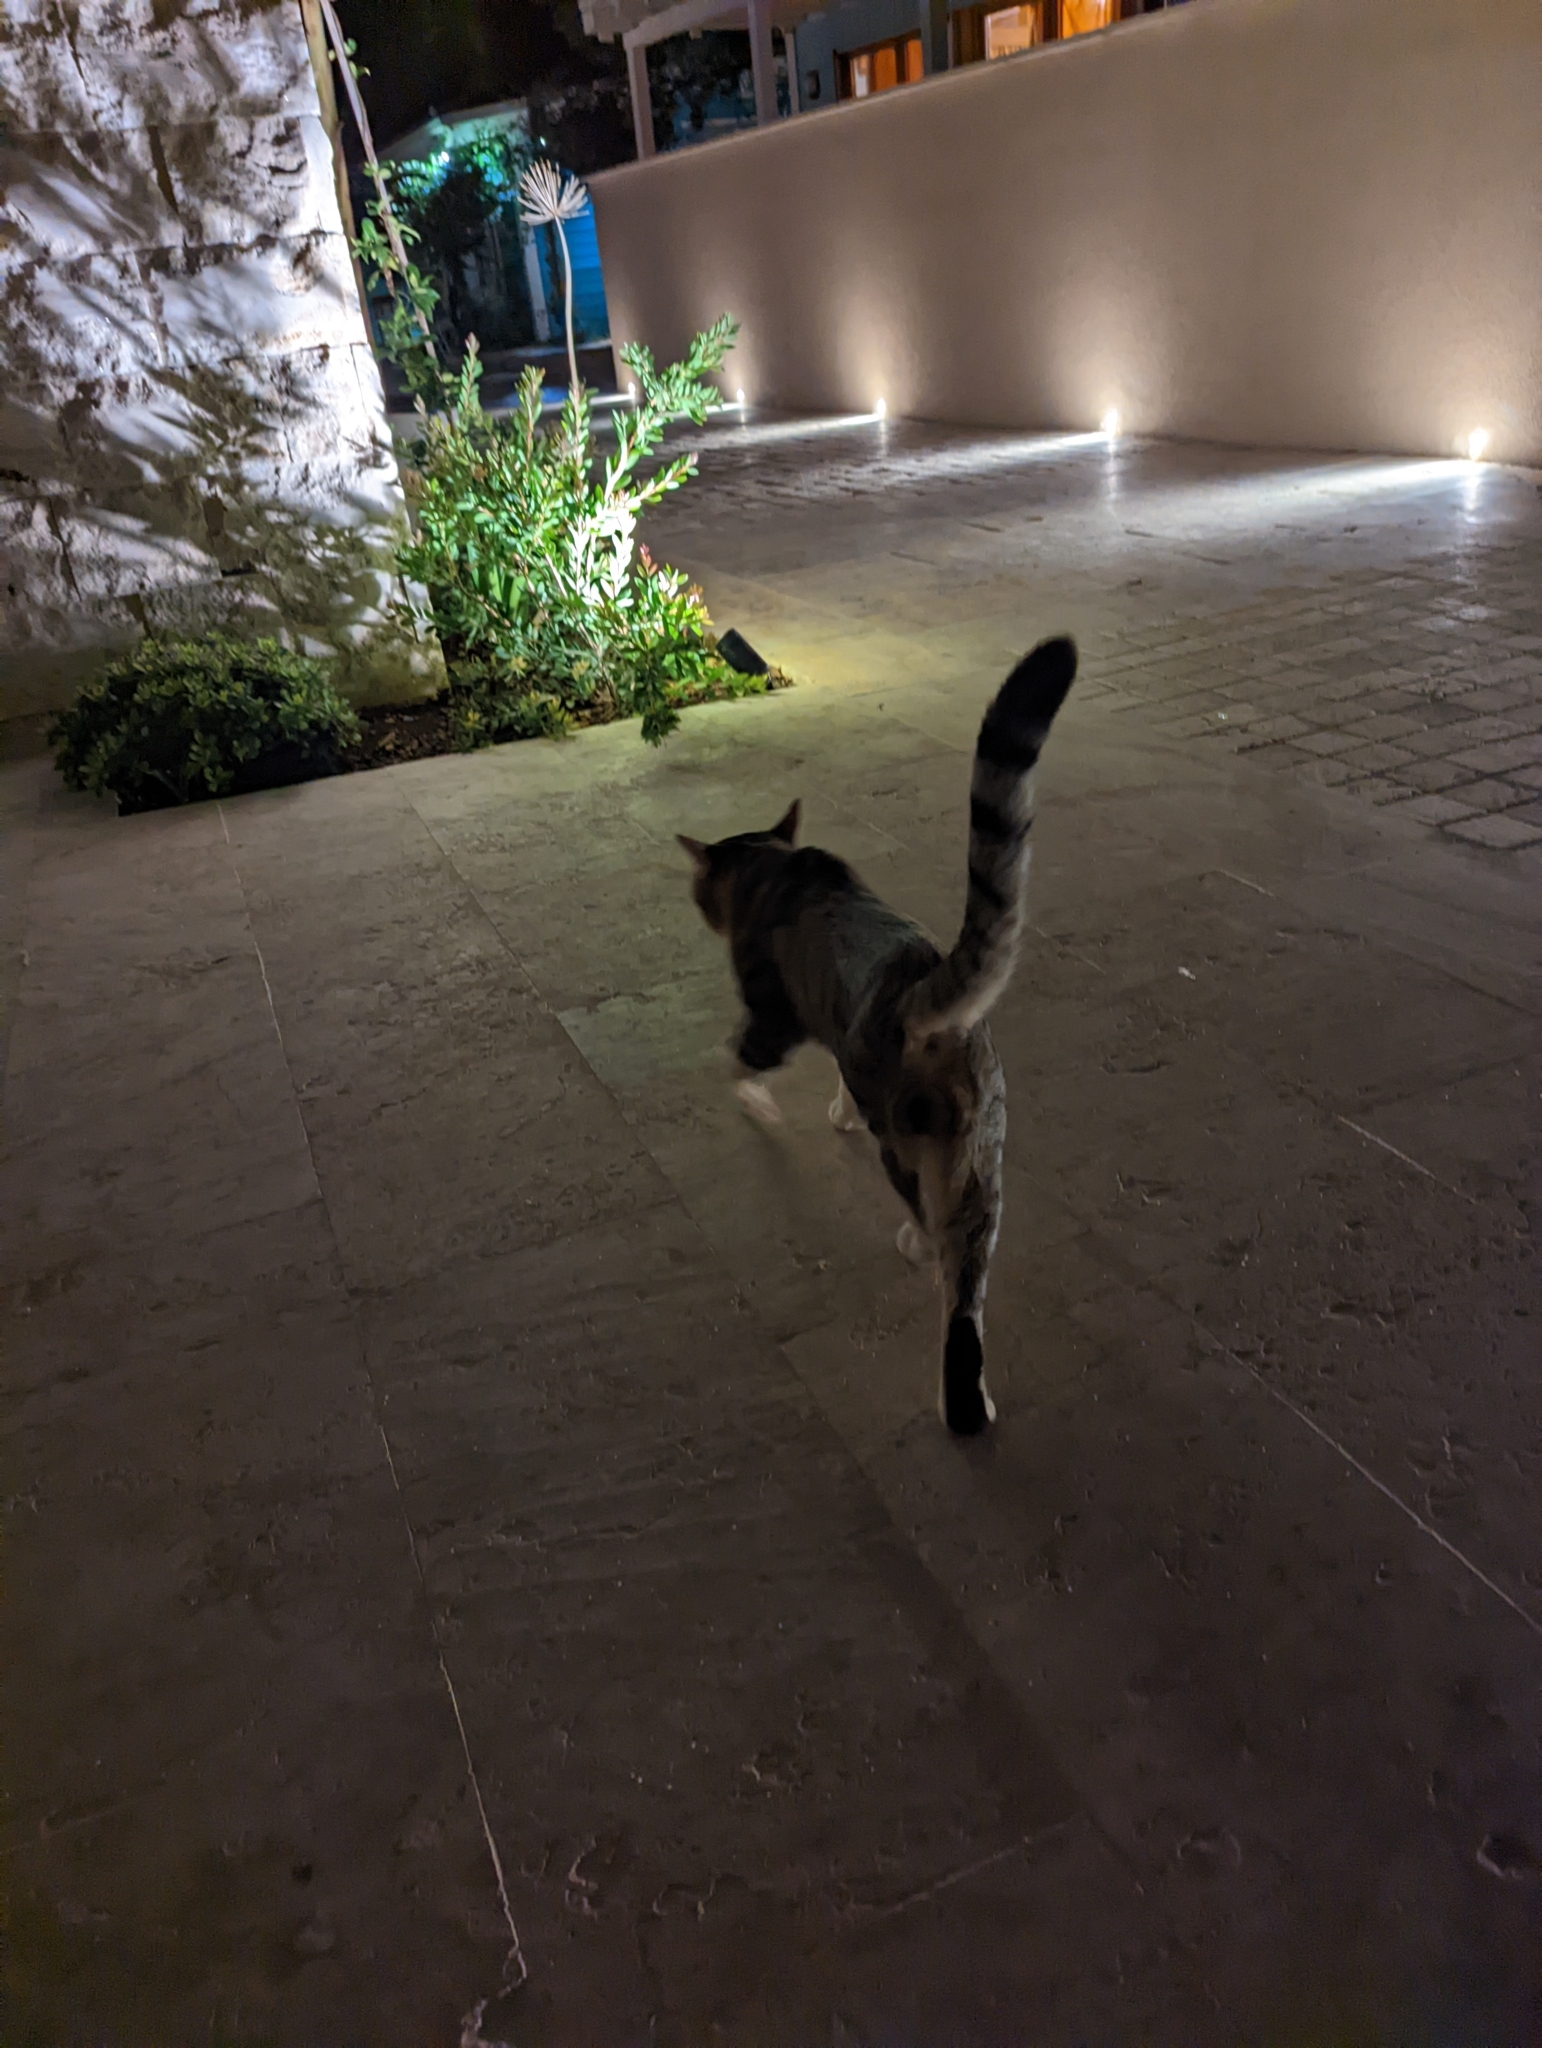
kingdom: Animalia
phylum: Chordata
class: Mammalia
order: Carnivora
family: Felidae
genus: Felis
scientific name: Felis catus
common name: Domestic cat
